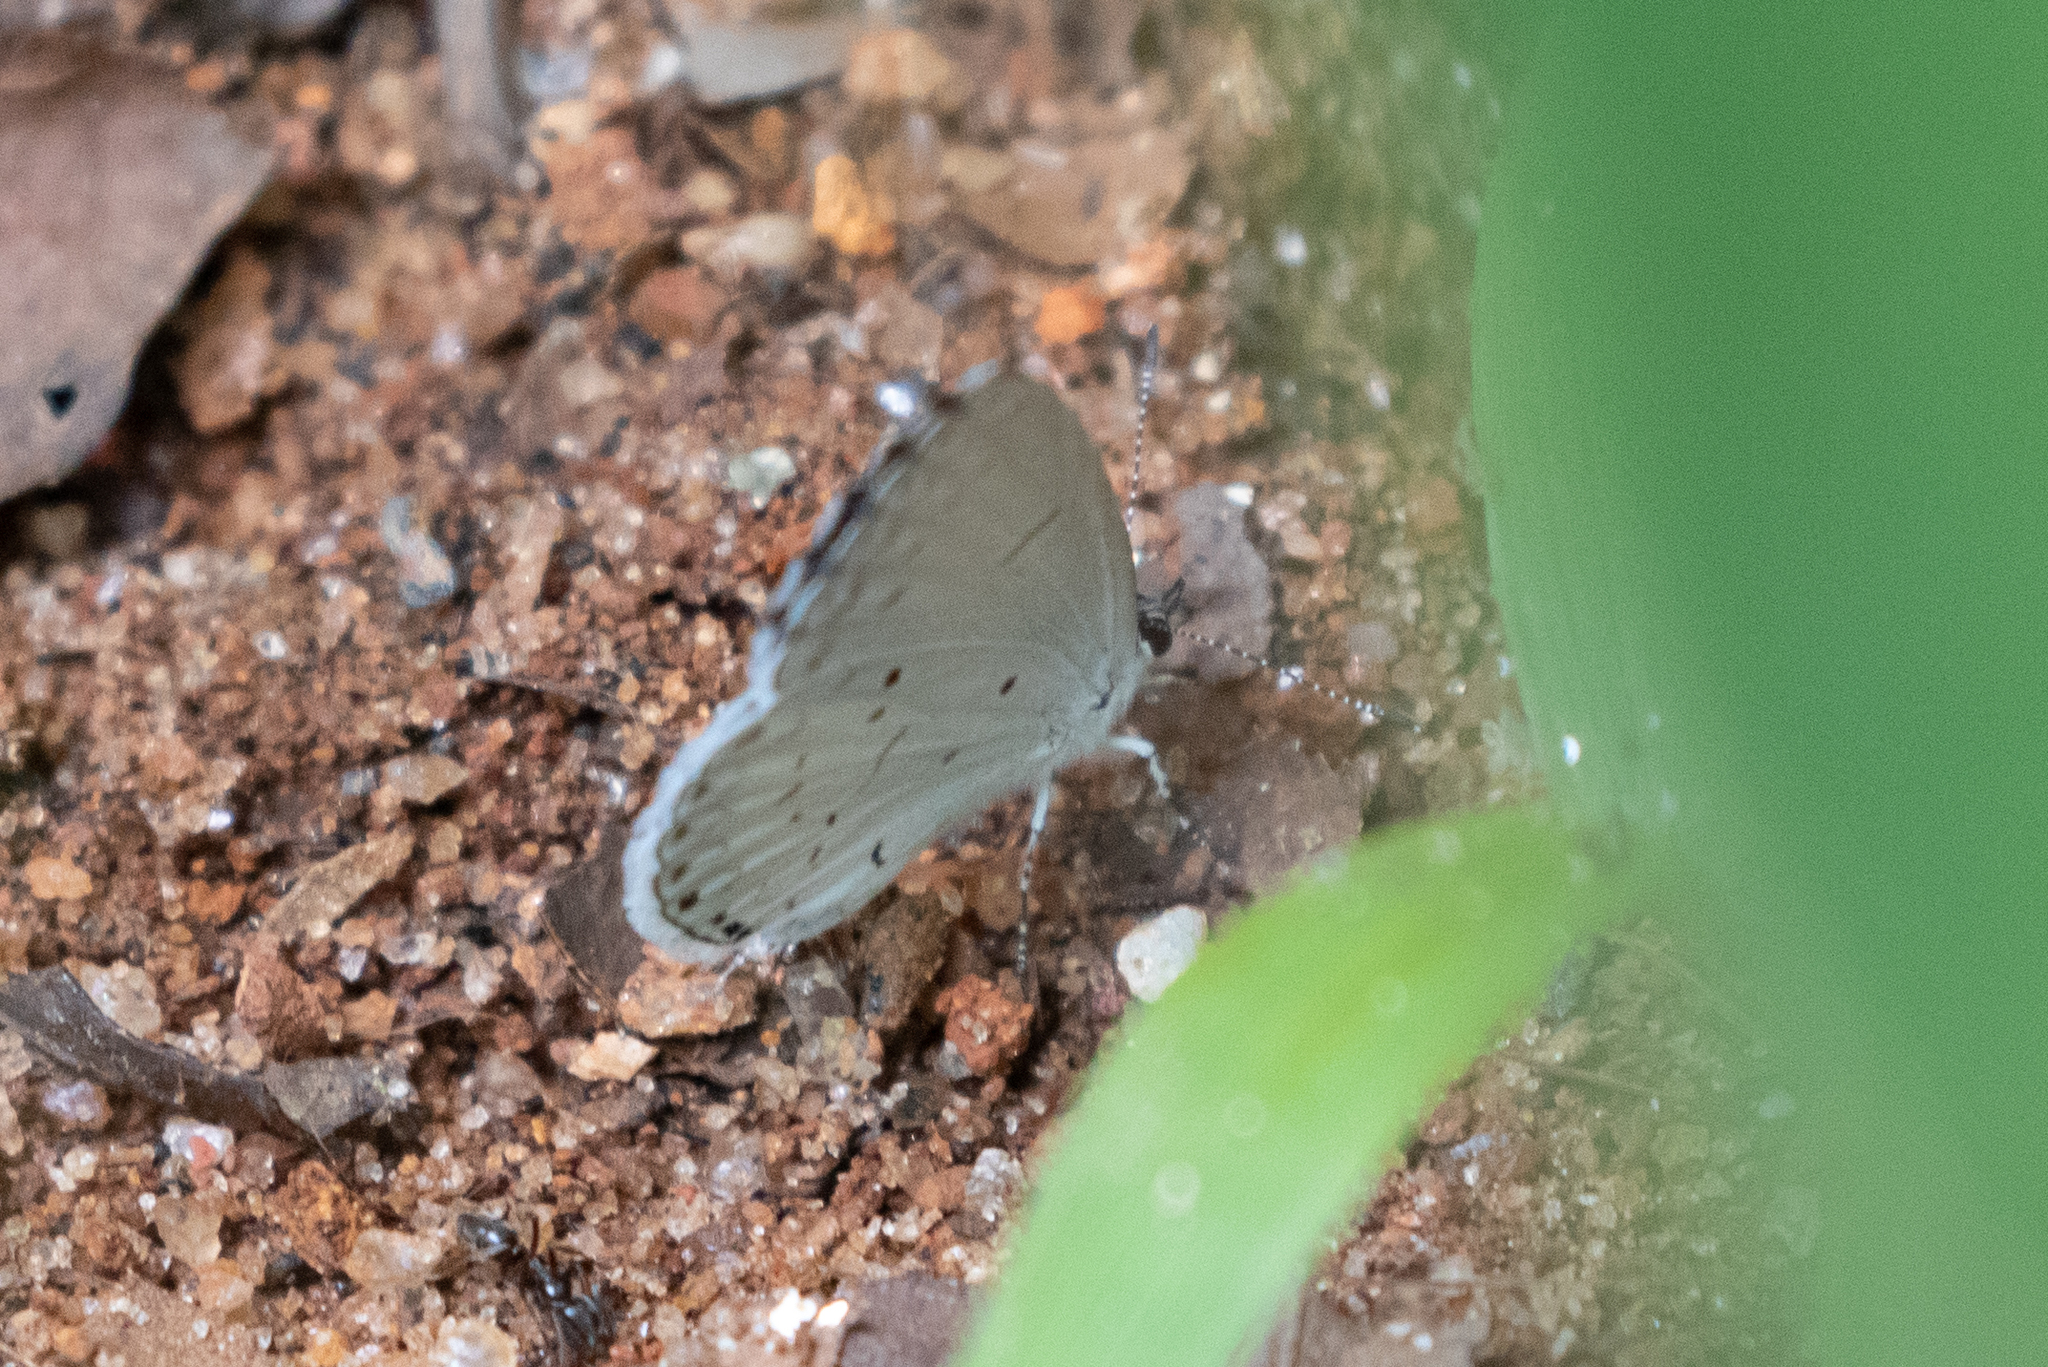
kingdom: Animalia
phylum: Arthropoda
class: Insecta
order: Lepidoptera
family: Lycaenidae
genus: Cyaniris
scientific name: Cyaniris neglecta
